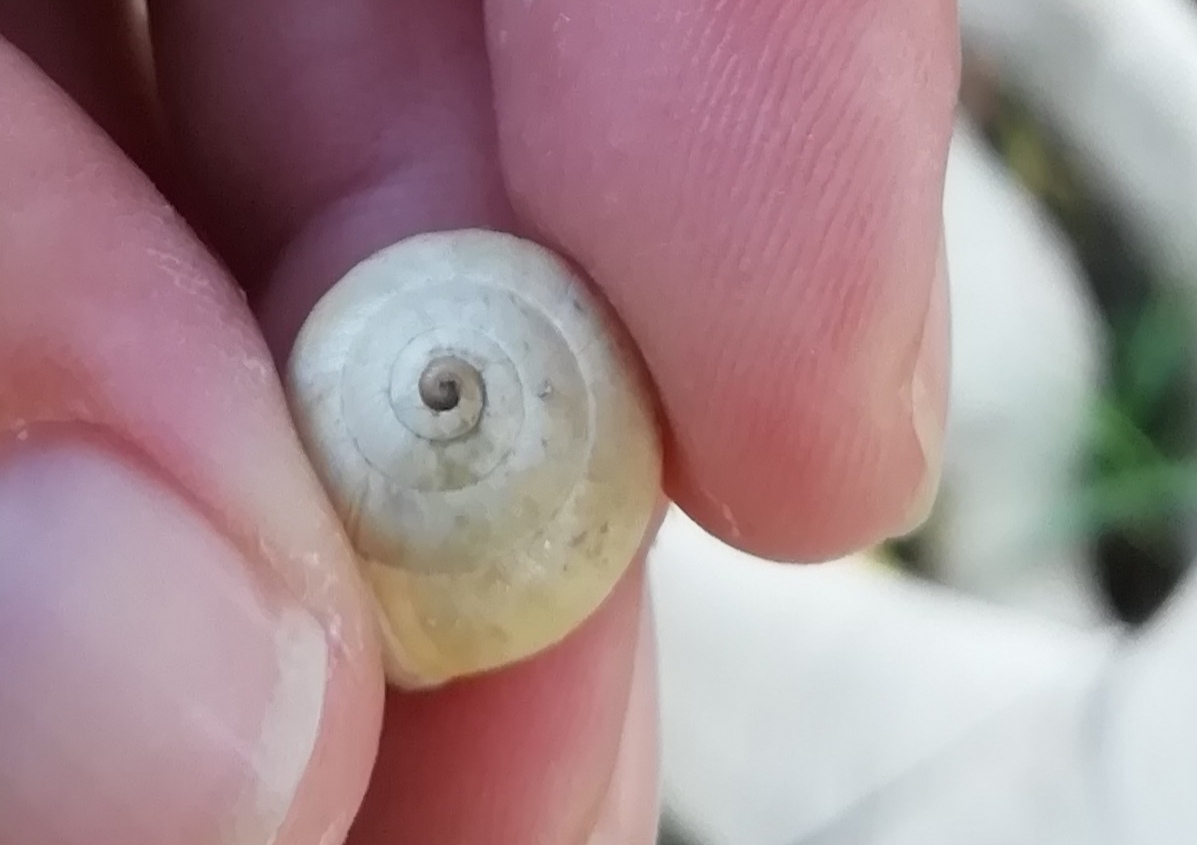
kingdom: Animalia
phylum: Mollusca
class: Gastropoda
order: Stylommatophora
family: Helicidae
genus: Theba
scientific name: Theba pisana
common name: White snail
